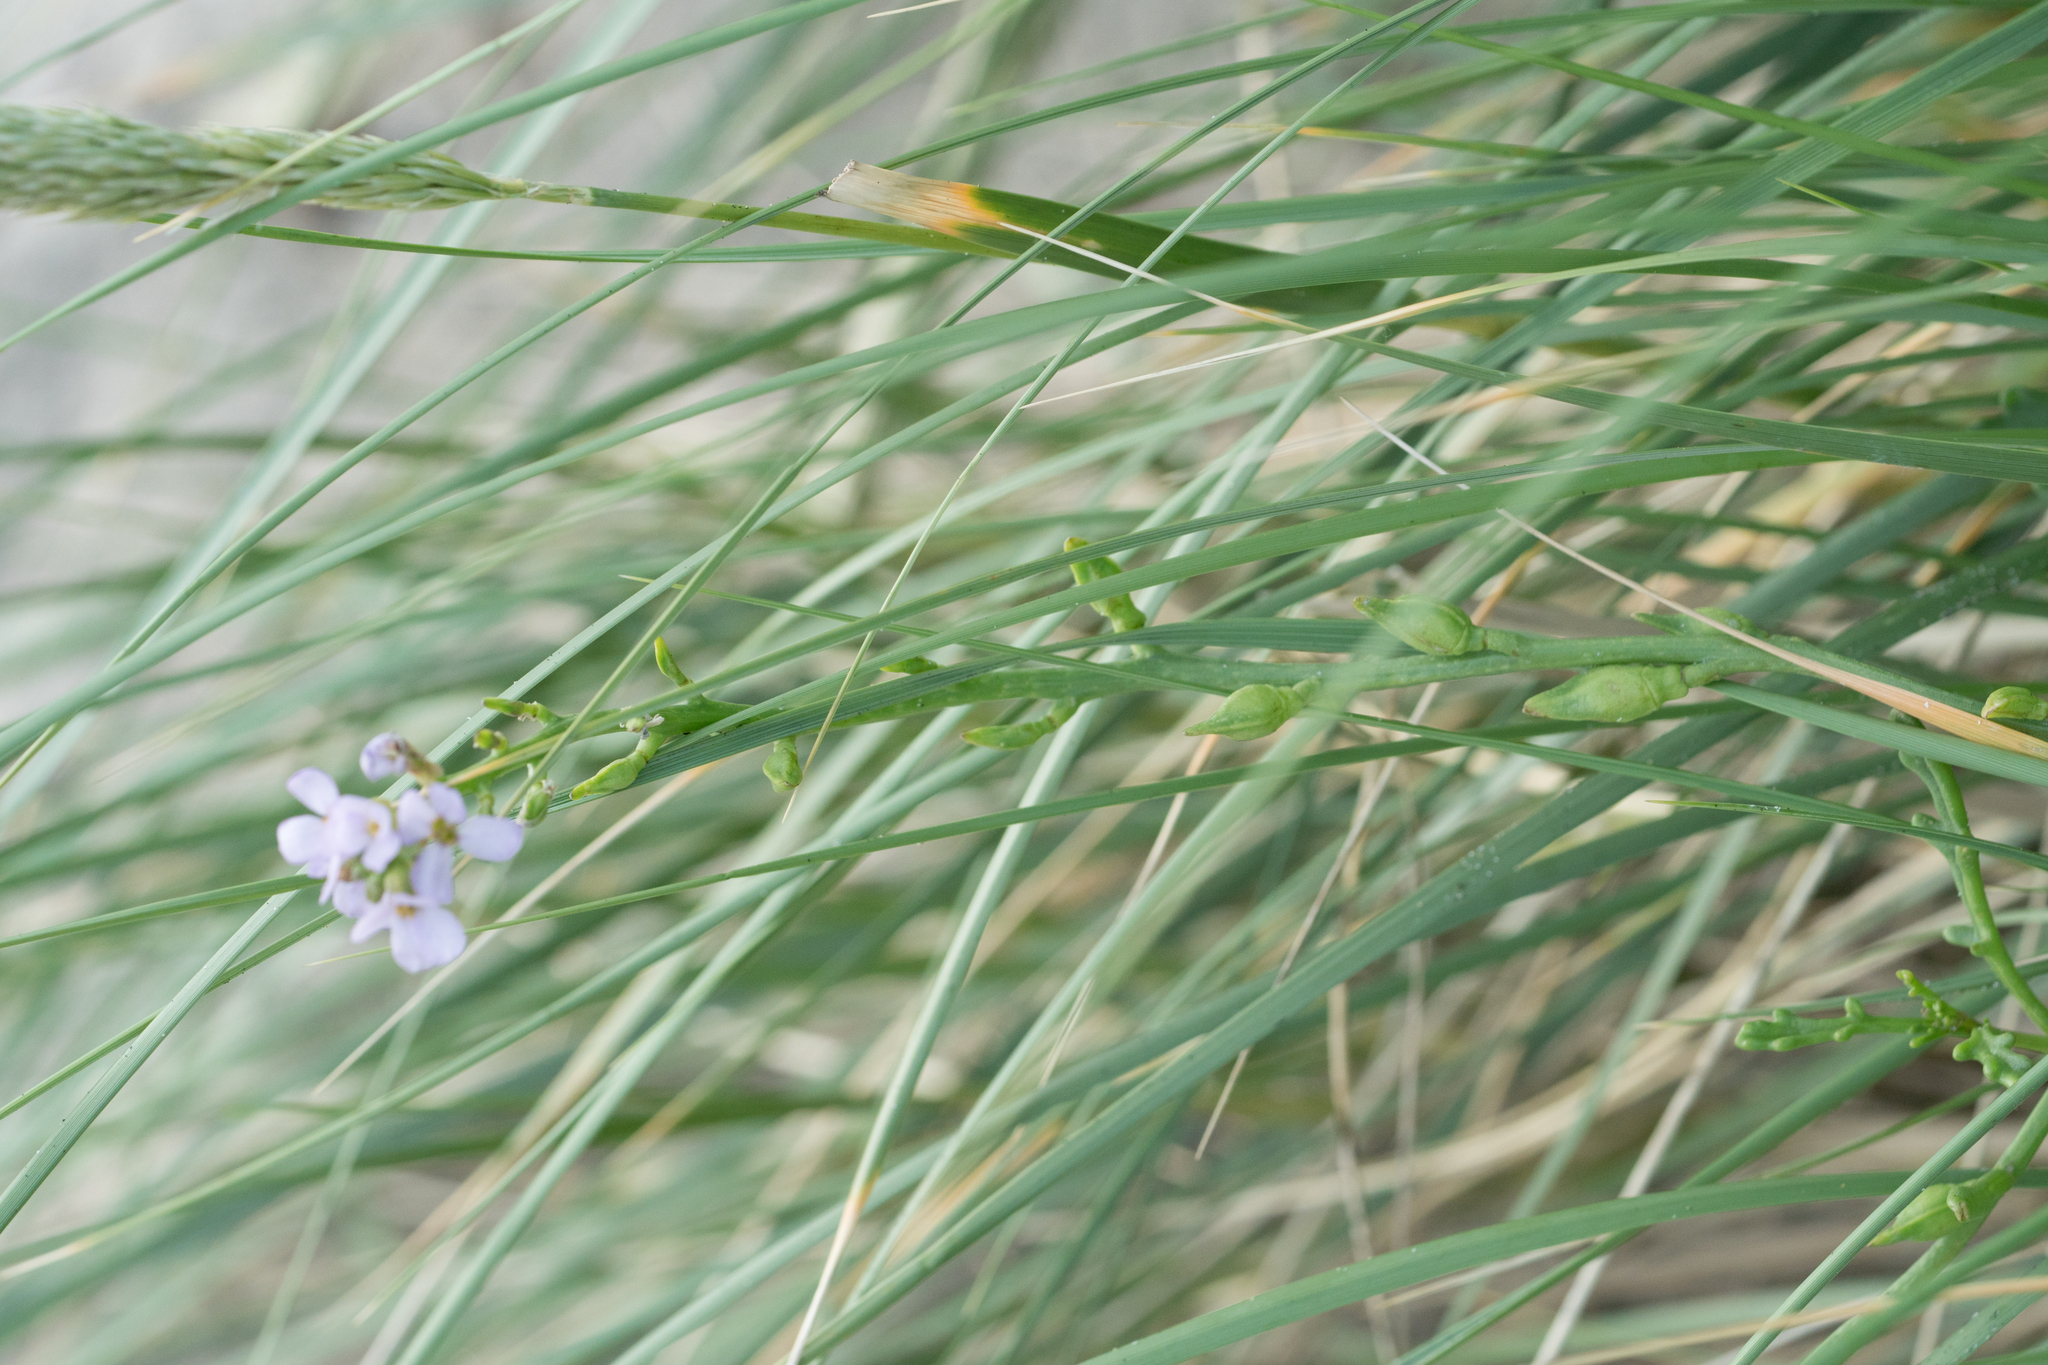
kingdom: Plantae
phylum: Tracheophyta
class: Magnoliopsida
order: Brassicales
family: Brassicaceae
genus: Cakile
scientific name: Cakile maritima
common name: Sea rocket
